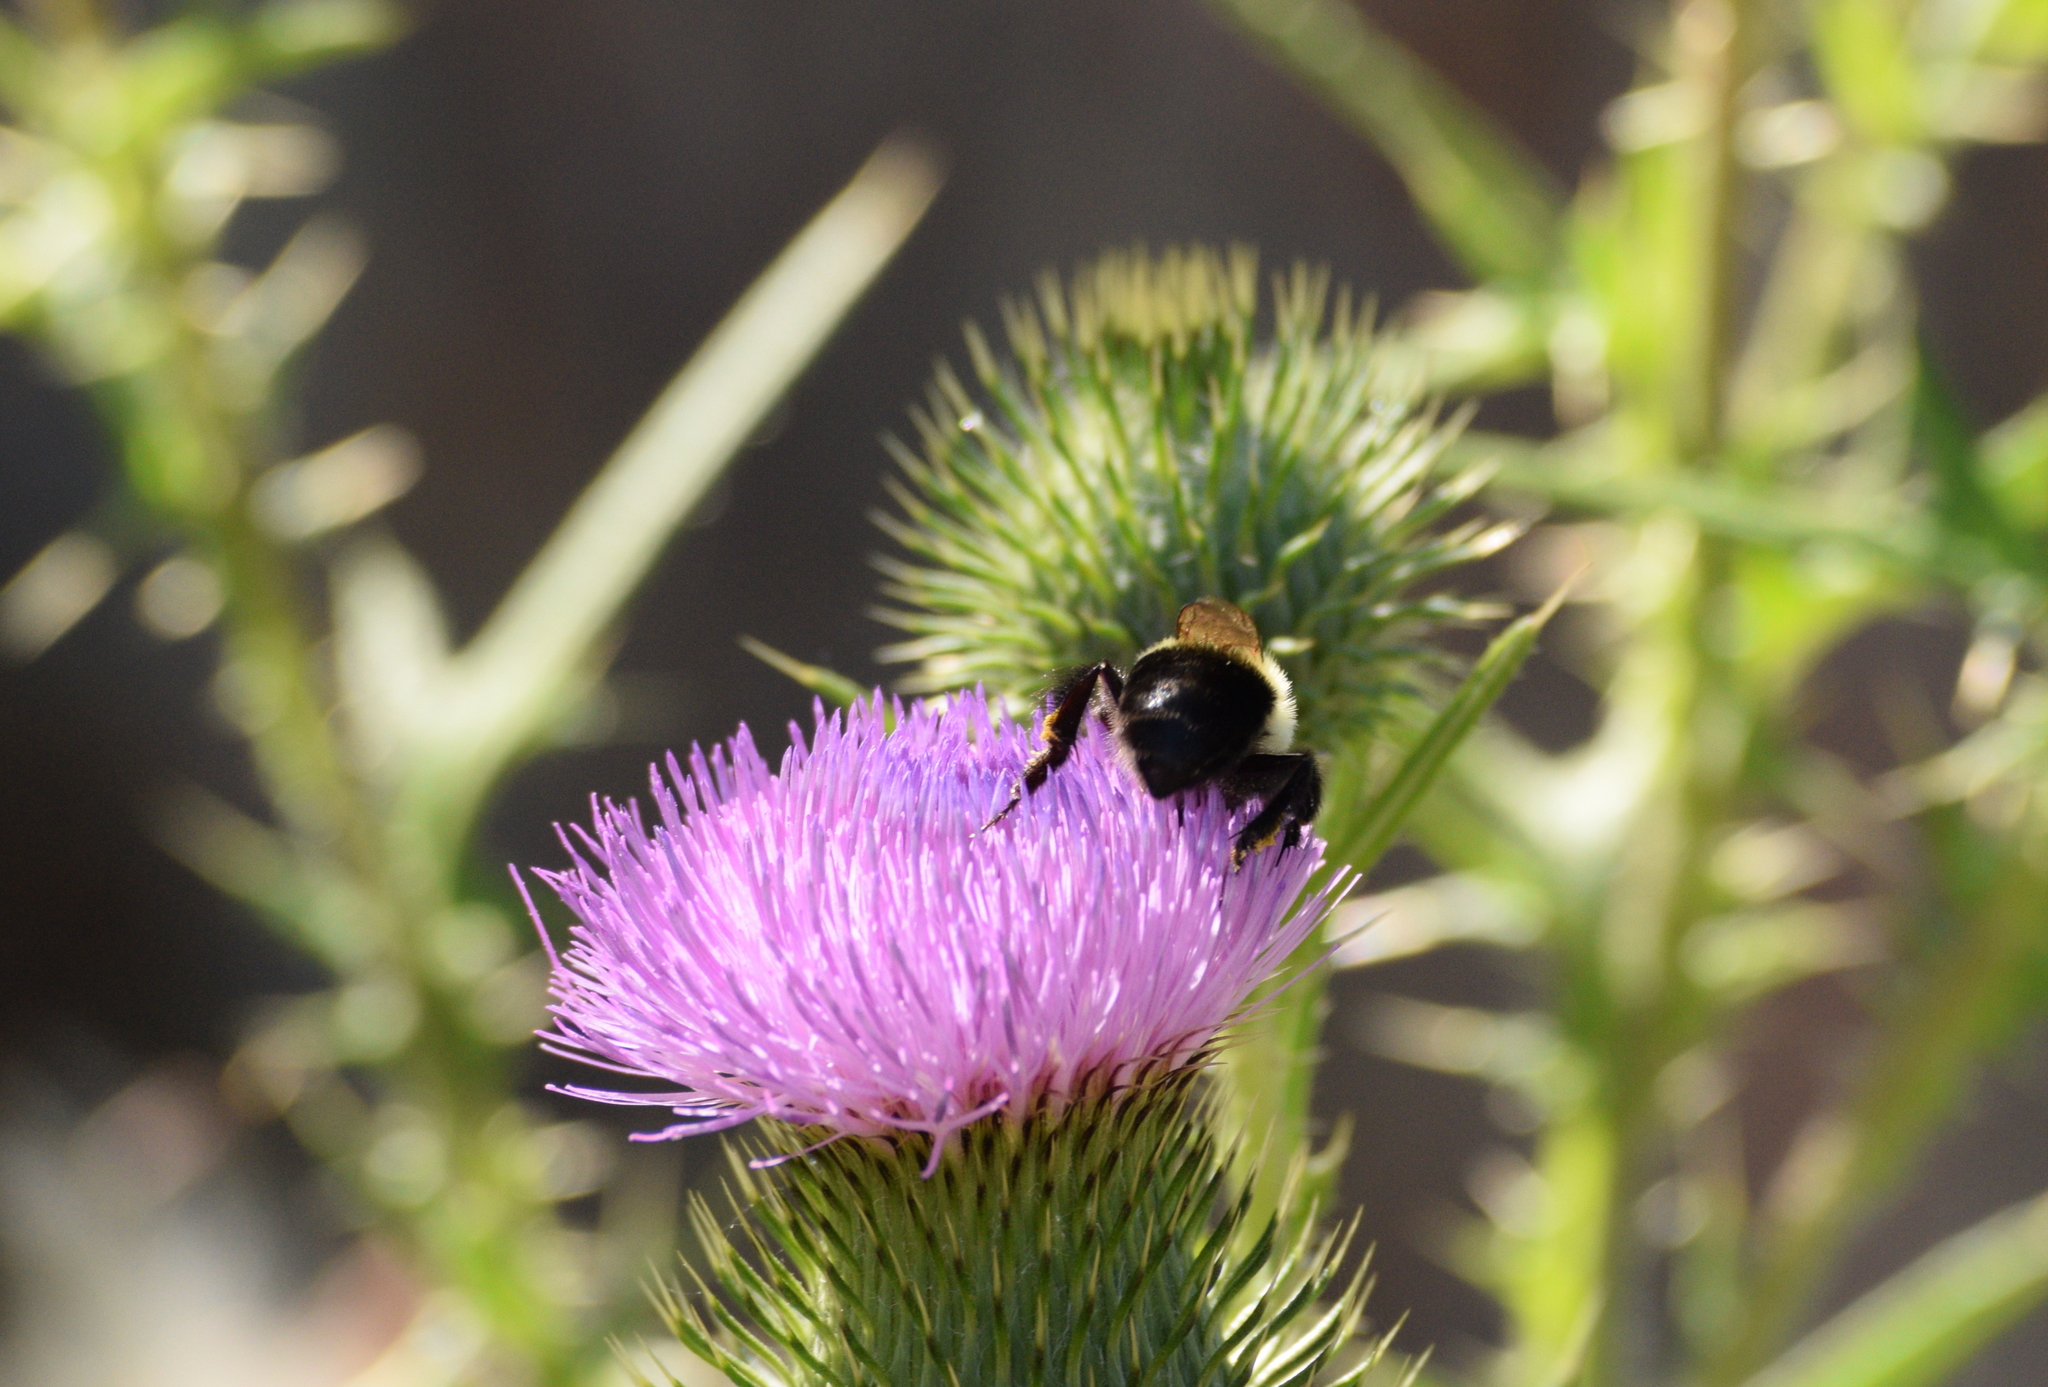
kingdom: Animalia
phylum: Arthropoda
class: Insecta
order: Hymenoptera
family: Apidae
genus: Bombus
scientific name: Bombus impatiens
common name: Common eastern bumble bee
